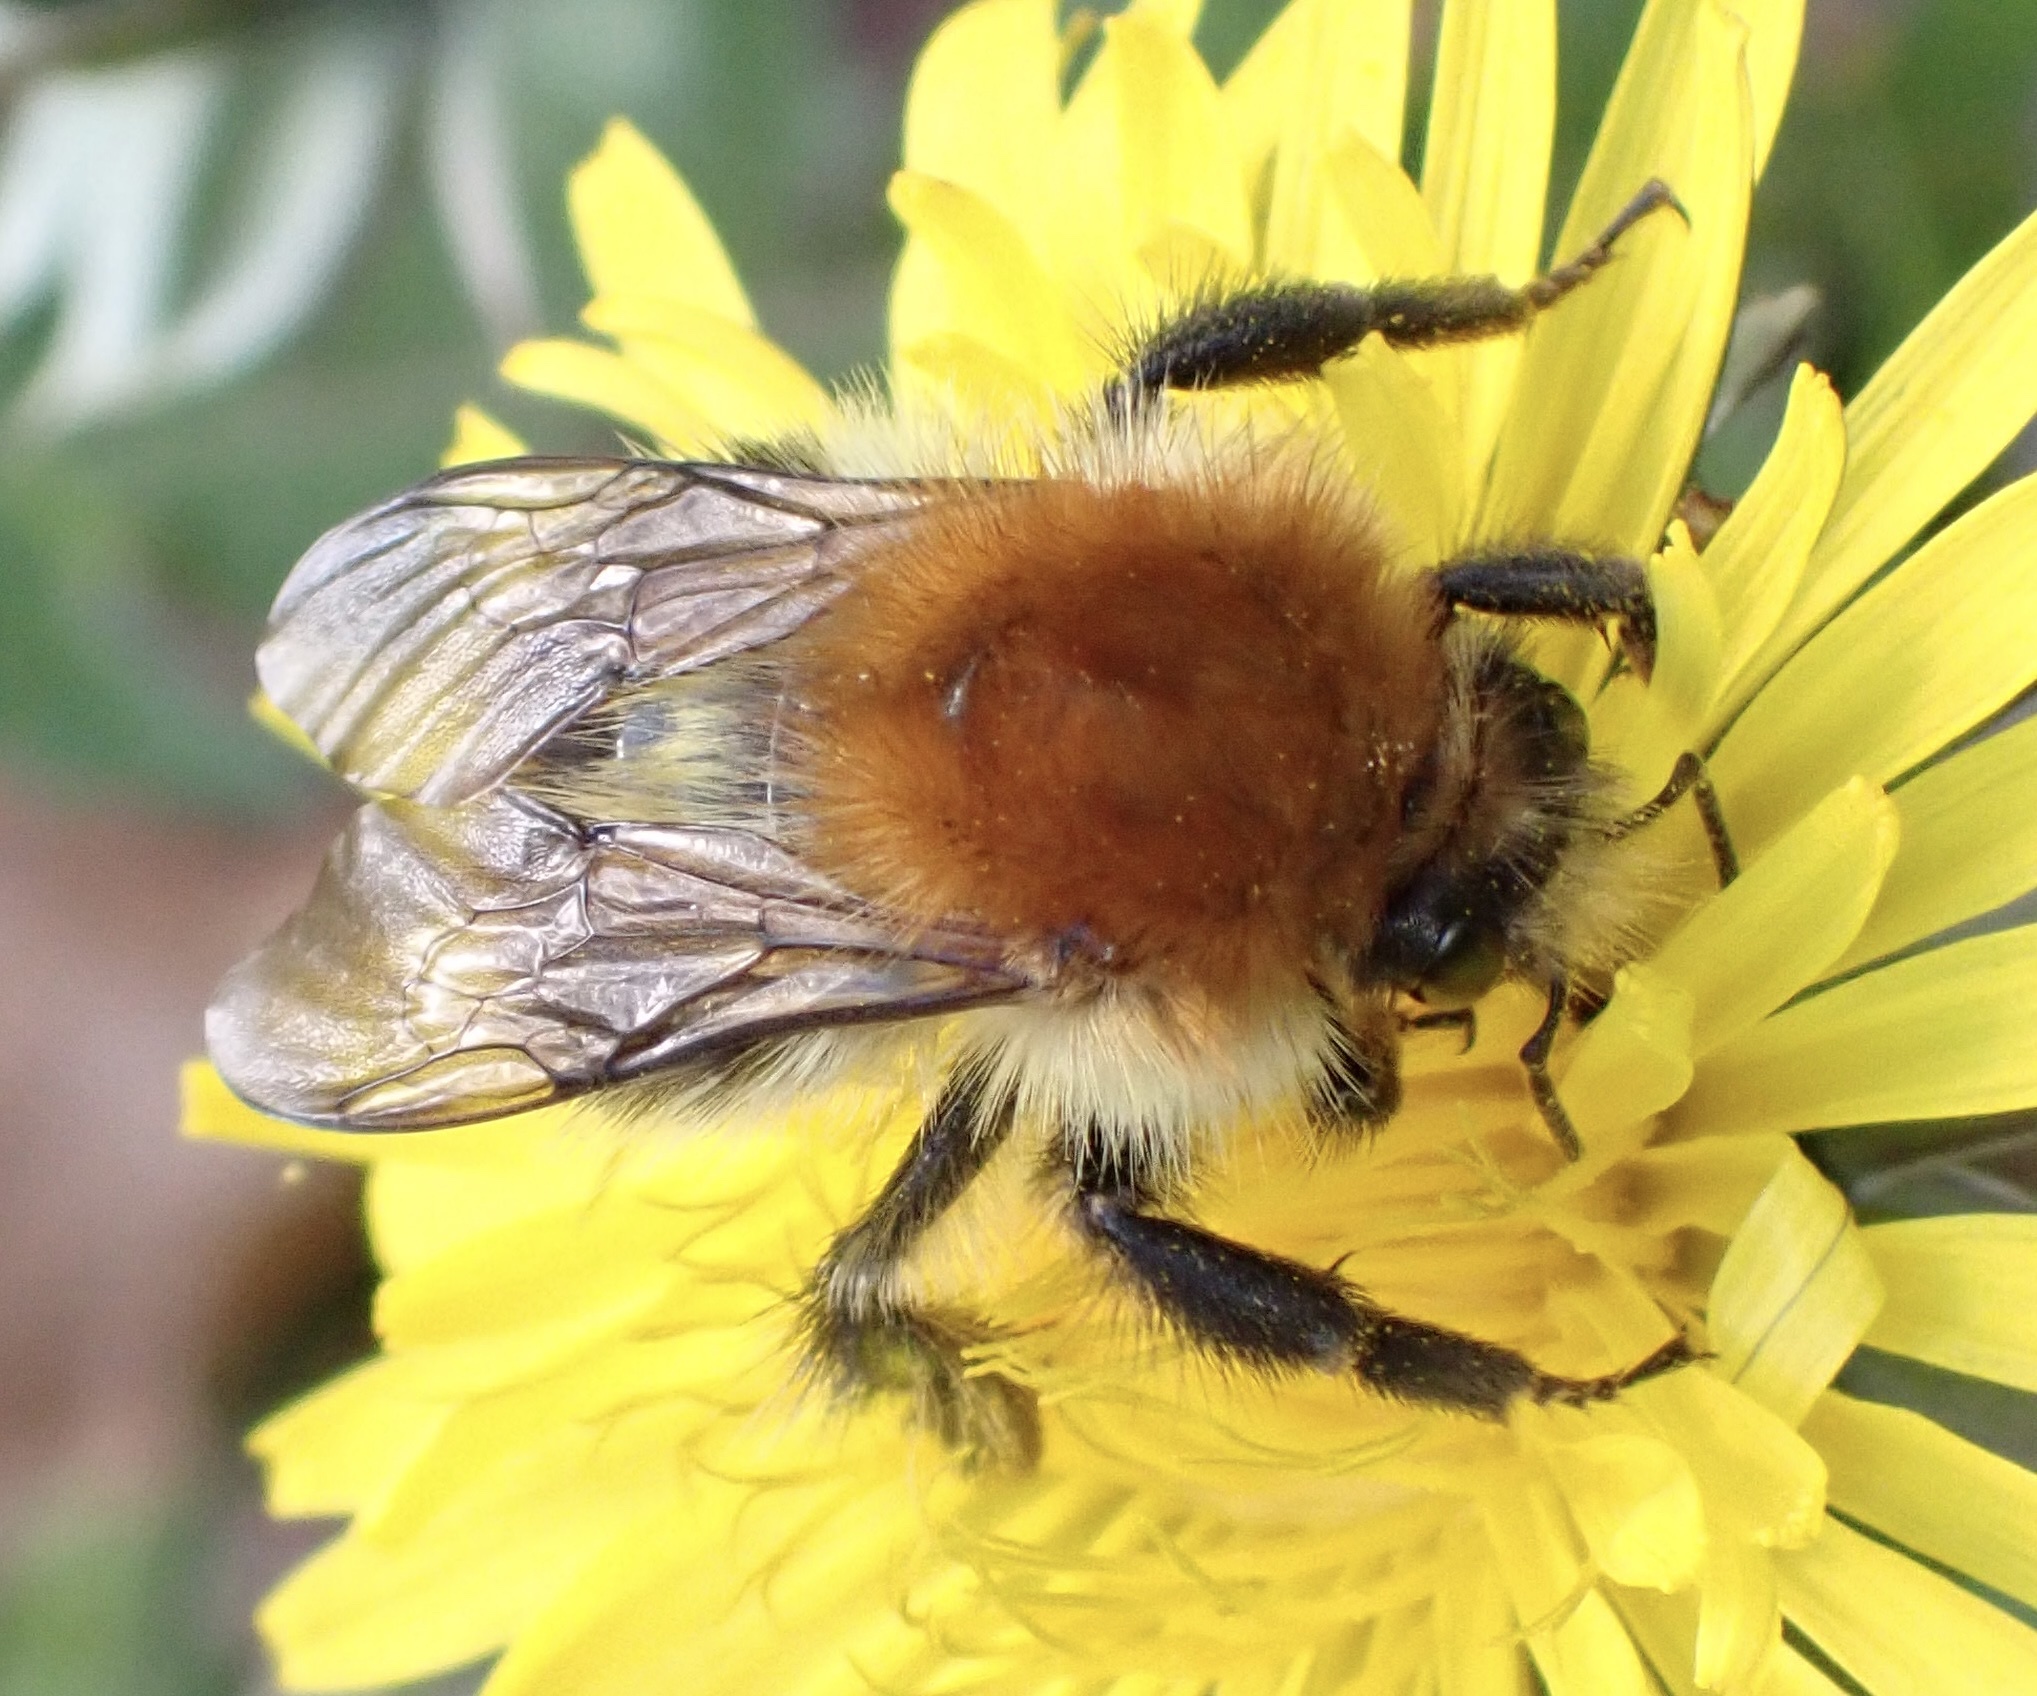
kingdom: Animalia
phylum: Arthropoda
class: Insecta
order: Hymenoptera
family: Apidae
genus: Bombus
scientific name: Bombus pascuorum
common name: Common carder bee
